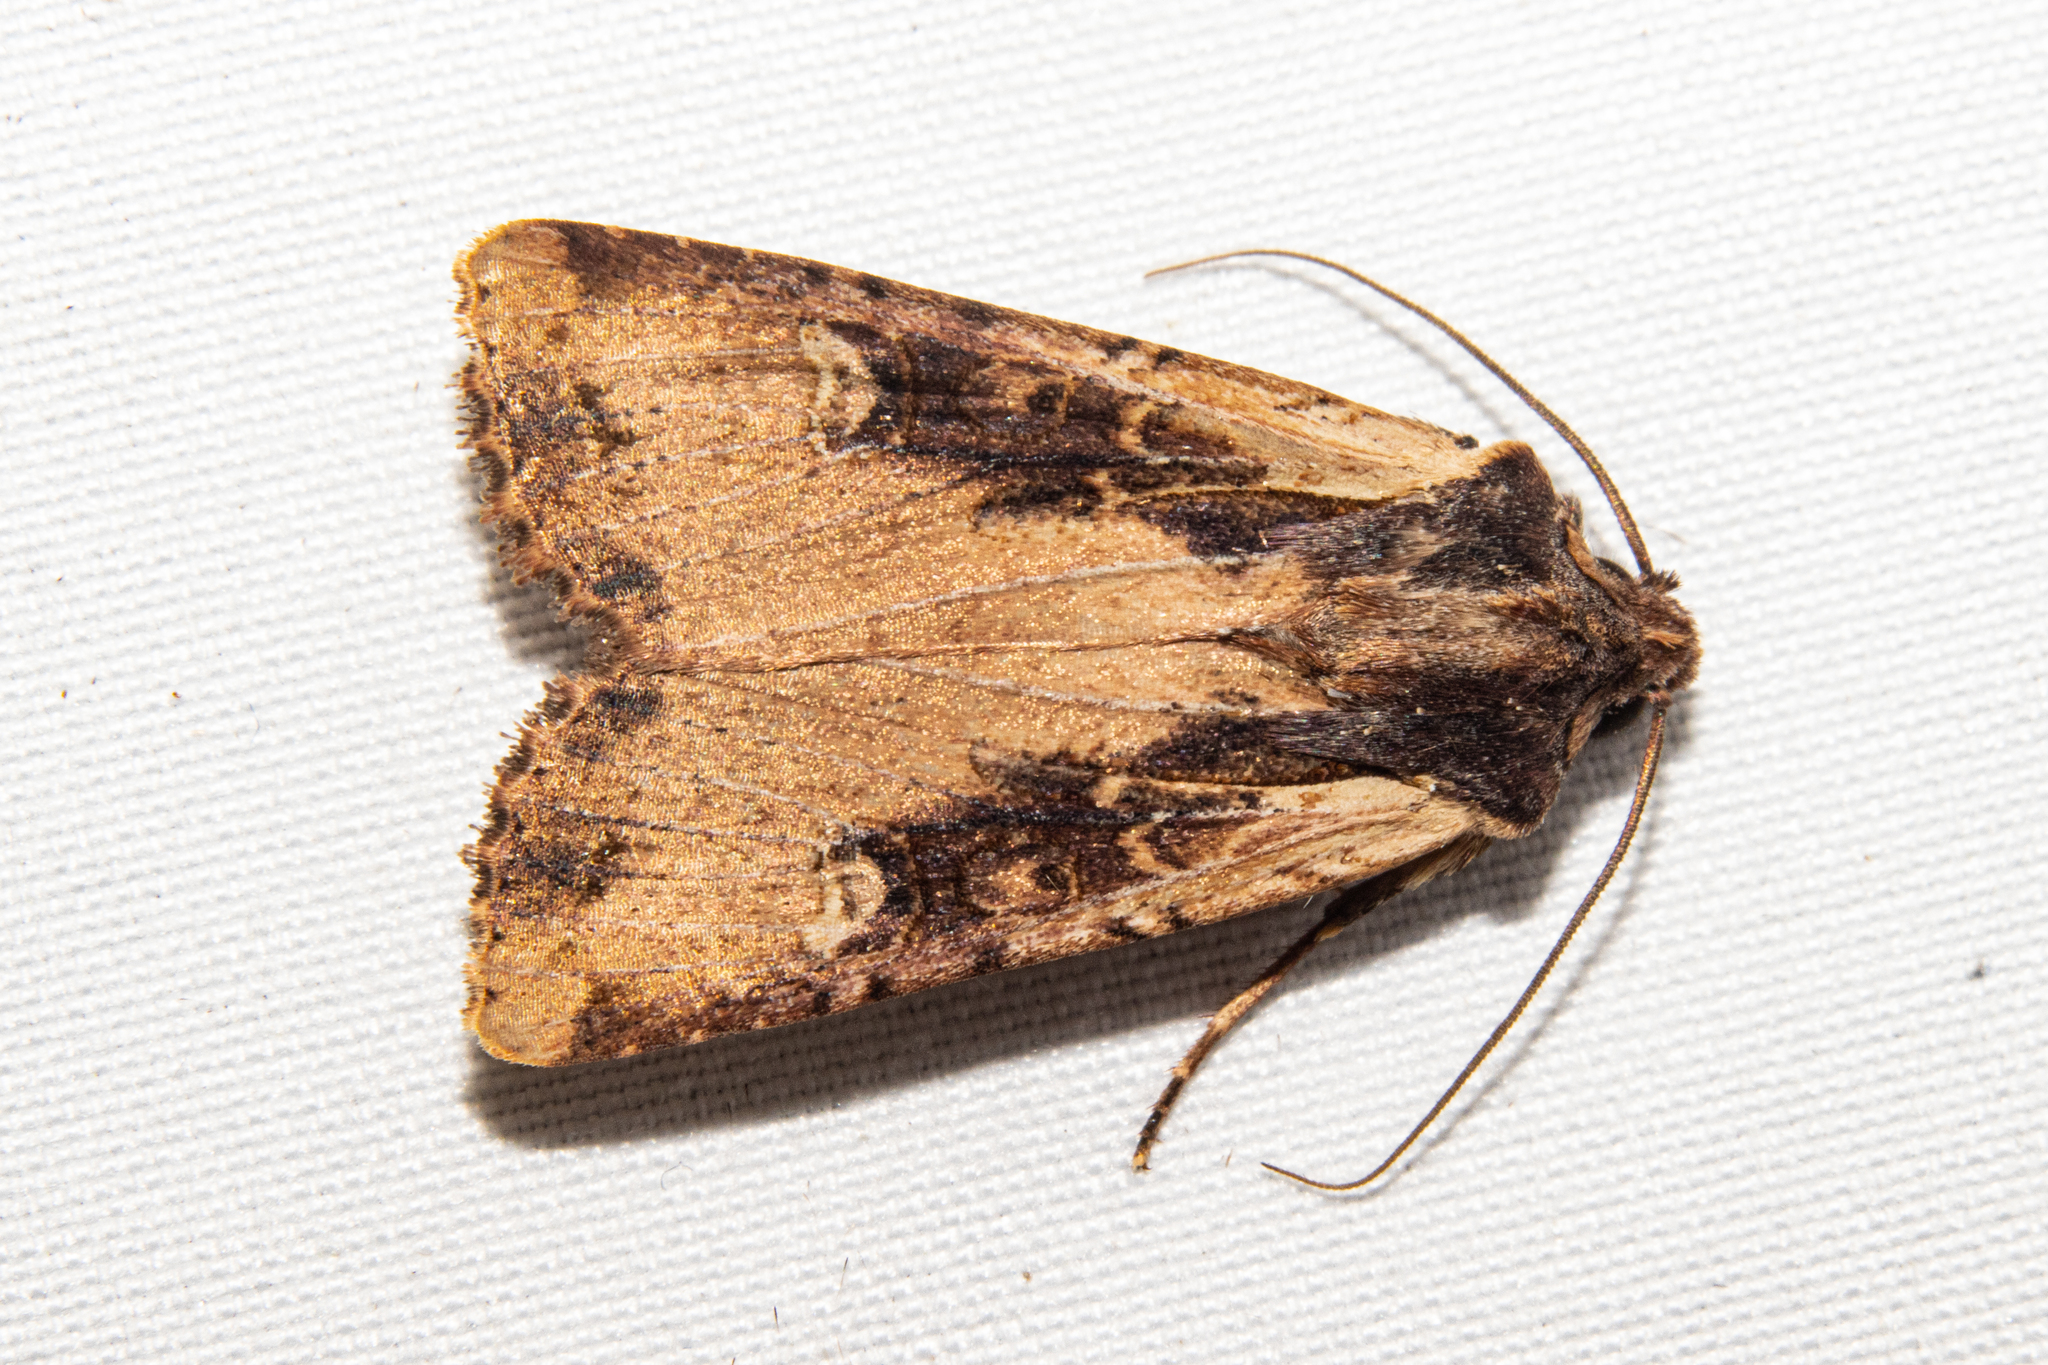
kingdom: Animalia
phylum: Arthropoda
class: Insecta
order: Lepidoptera
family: Noctuidae
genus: Ichneutica
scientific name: Ichneutica omoplaca
